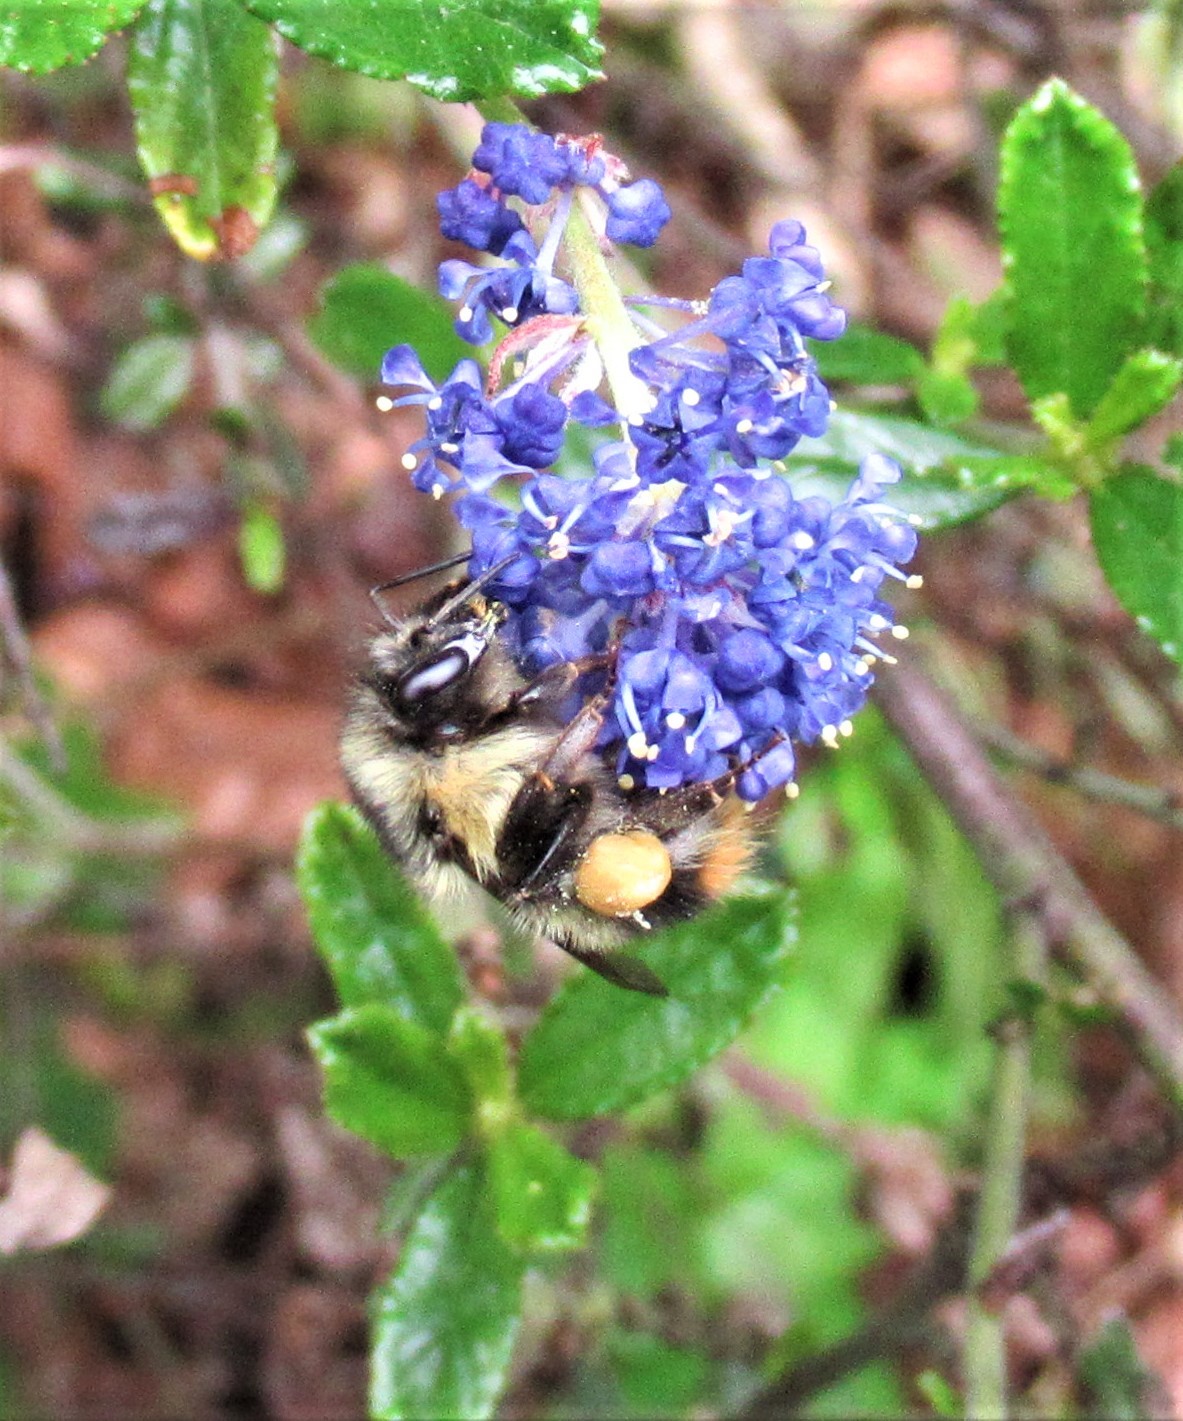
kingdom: Animalia
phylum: Arthropoda
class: Insecta
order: Hymenoptera
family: Apidae
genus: Bombus
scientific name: Bombus mixtus
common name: Fuzzy-horned bumble bee
